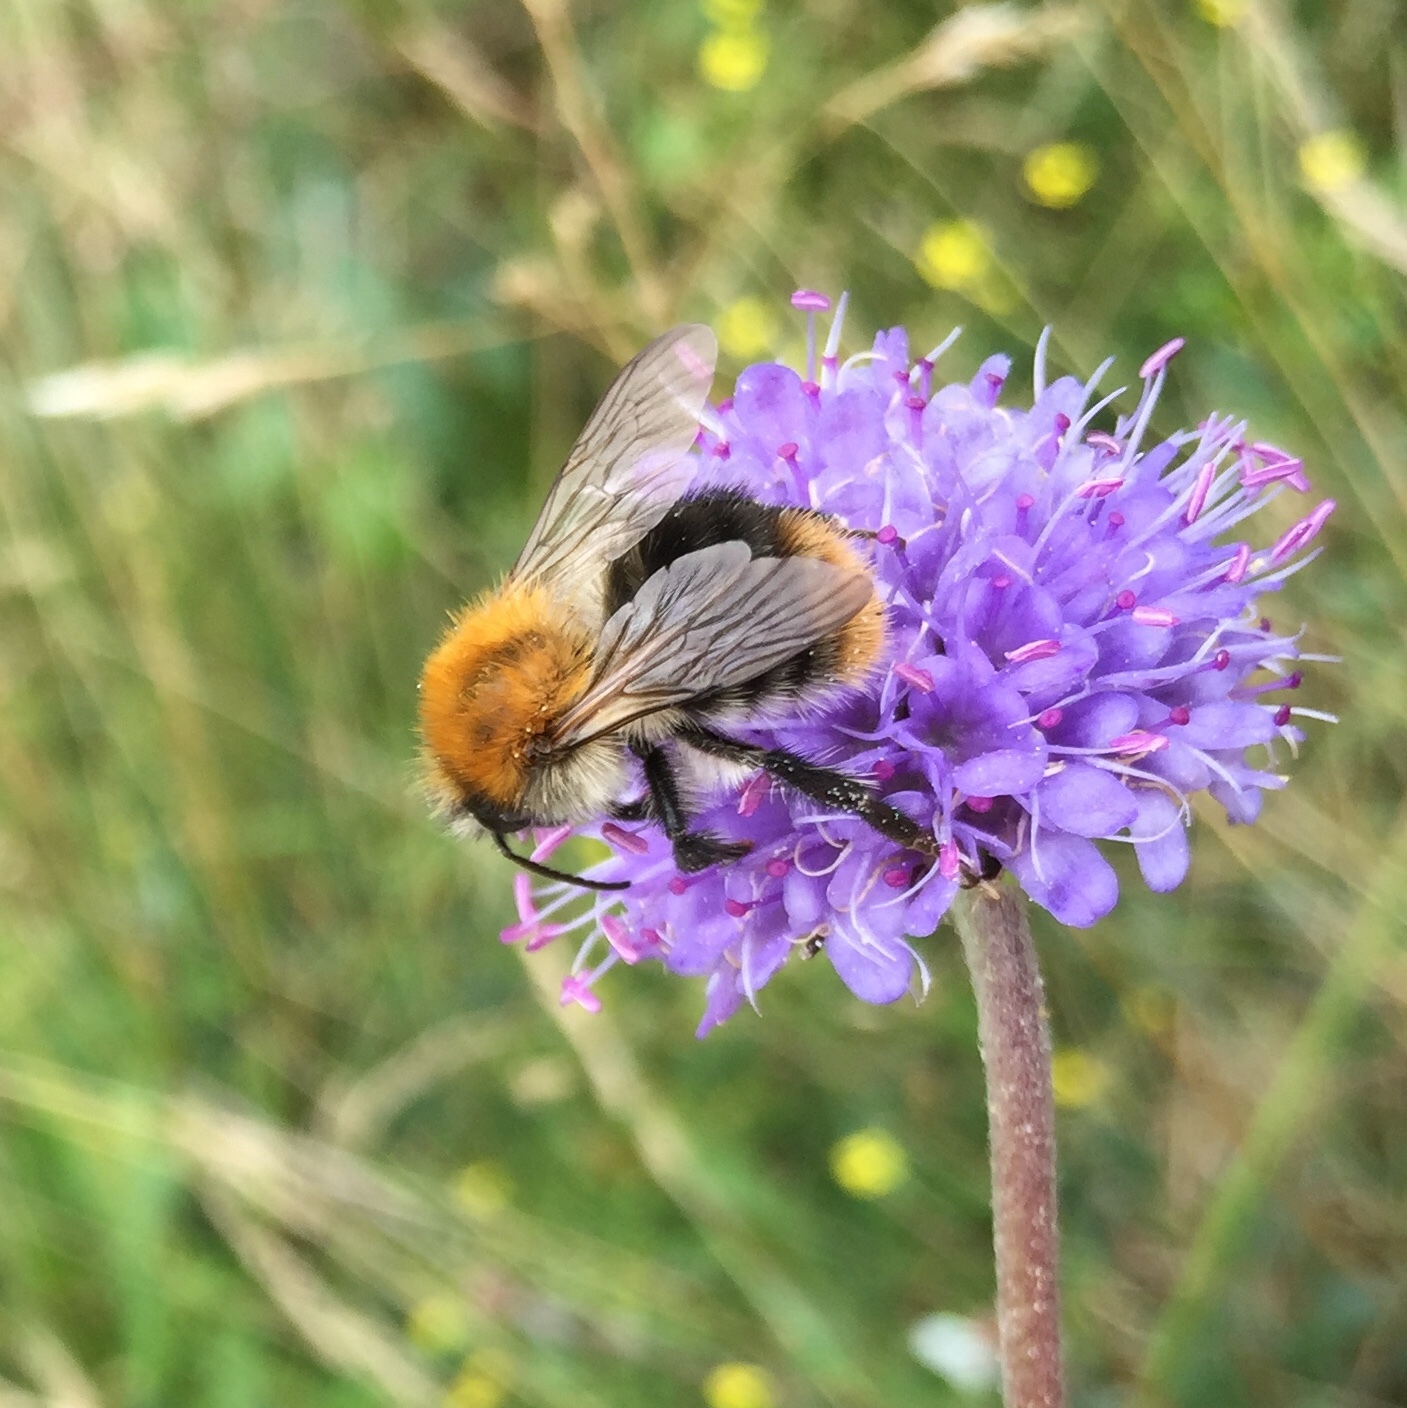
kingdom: Animalia
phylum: Arthropoda
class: Insecta
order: Hymenoptera
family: Apidae
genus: Bombus
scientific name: Bombus pascuorum
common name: Common carder bee
